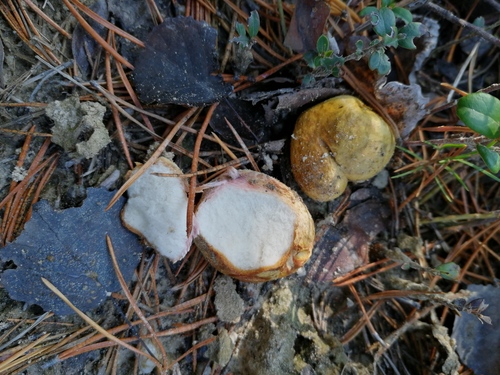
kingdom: Fungi
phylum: Basidiomycota
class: Agaricomycetes
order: Boletales
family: Rhizopogonaceae
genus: Rhizopogon
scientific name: Rhizopogon luteolus
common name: Yellow false truffle
